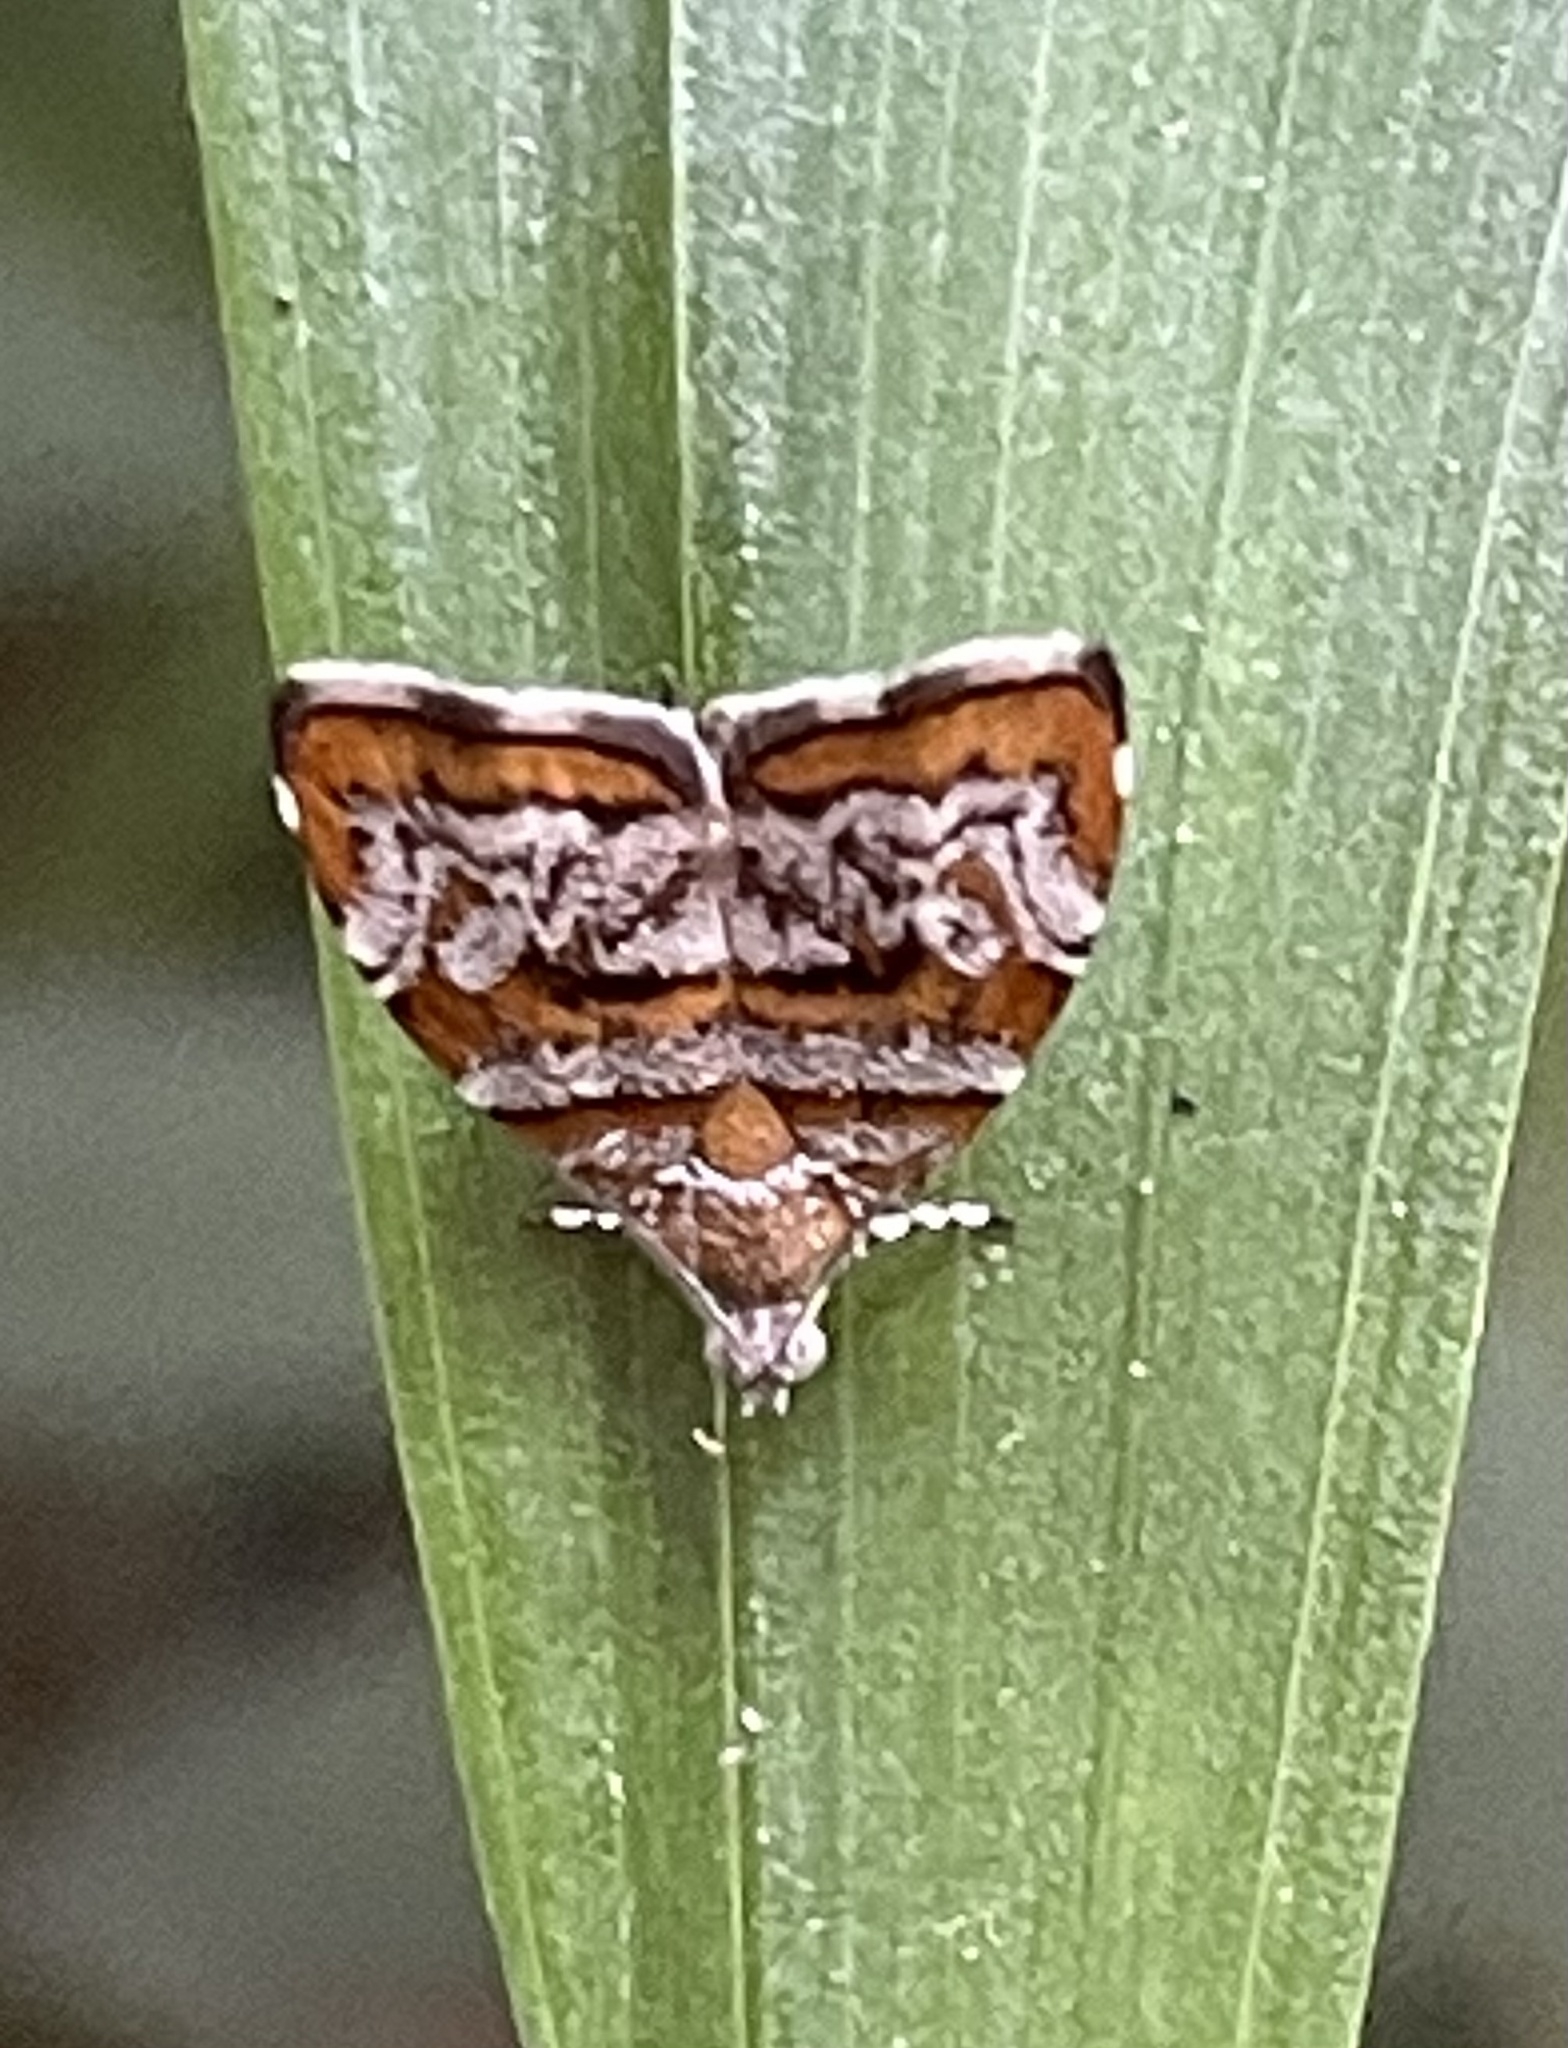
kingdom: Animalia
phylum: Arthropoda
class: Insecta
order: Lepidoptera
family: Choreutidae
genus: Choreutis
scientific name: Choreutis periploca
